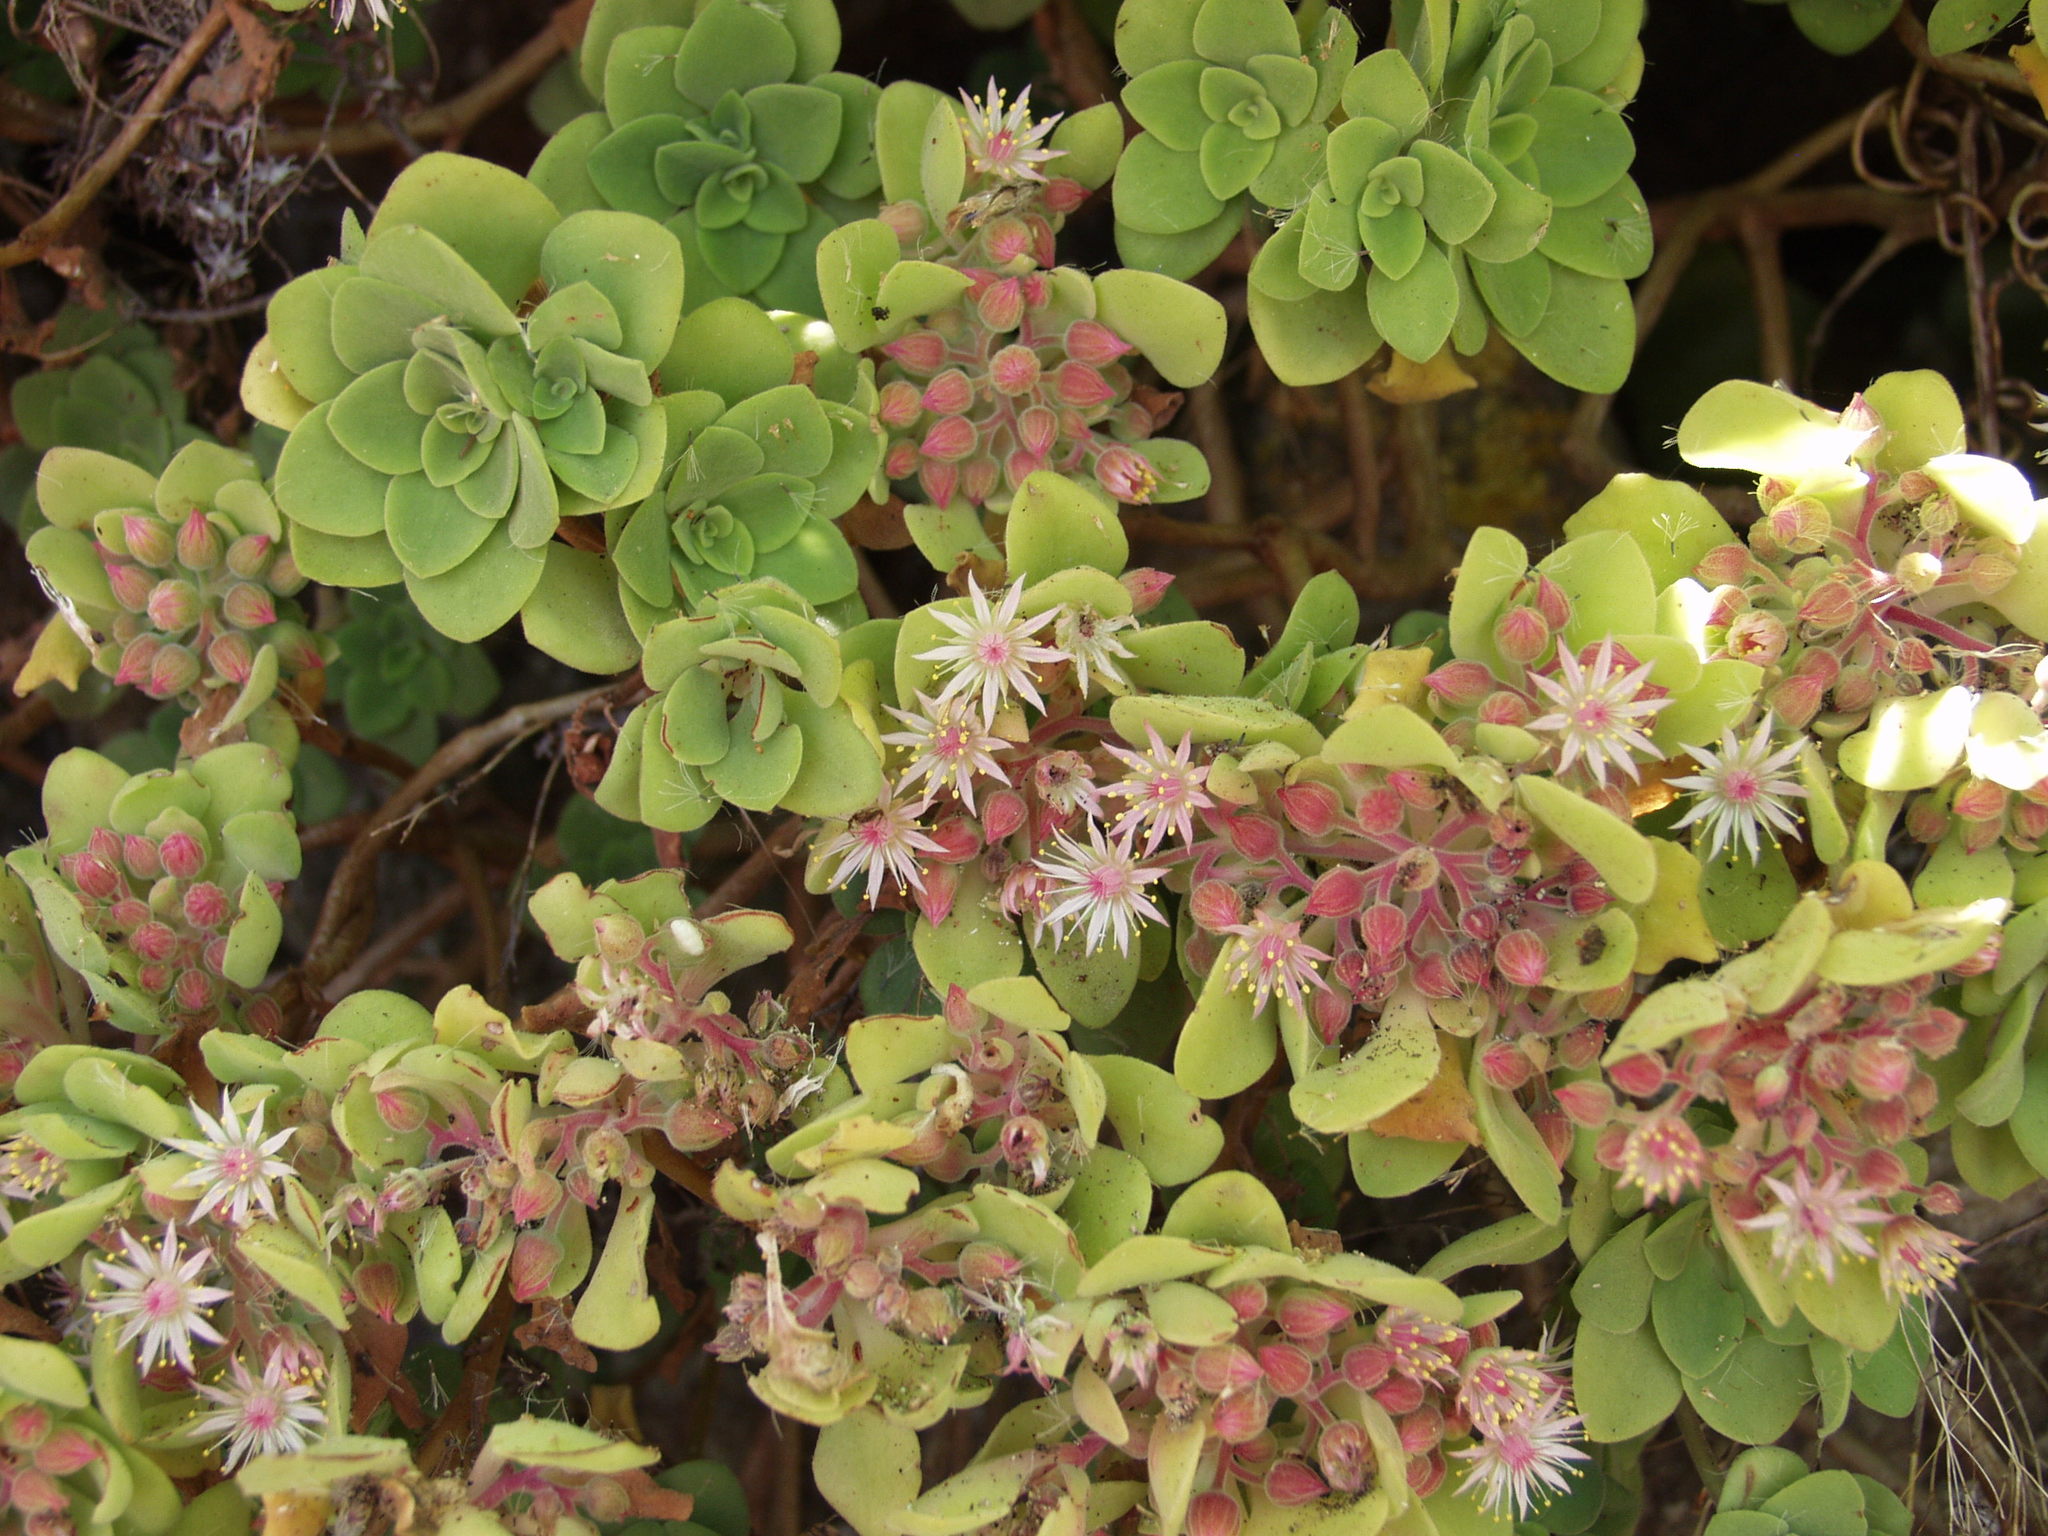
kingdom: Plantae
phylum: Tracheophyta
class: Magnoliopsida
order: Saxifragales
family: Crassulaceae
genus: Aeonium
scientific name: Aeonium goochiae
